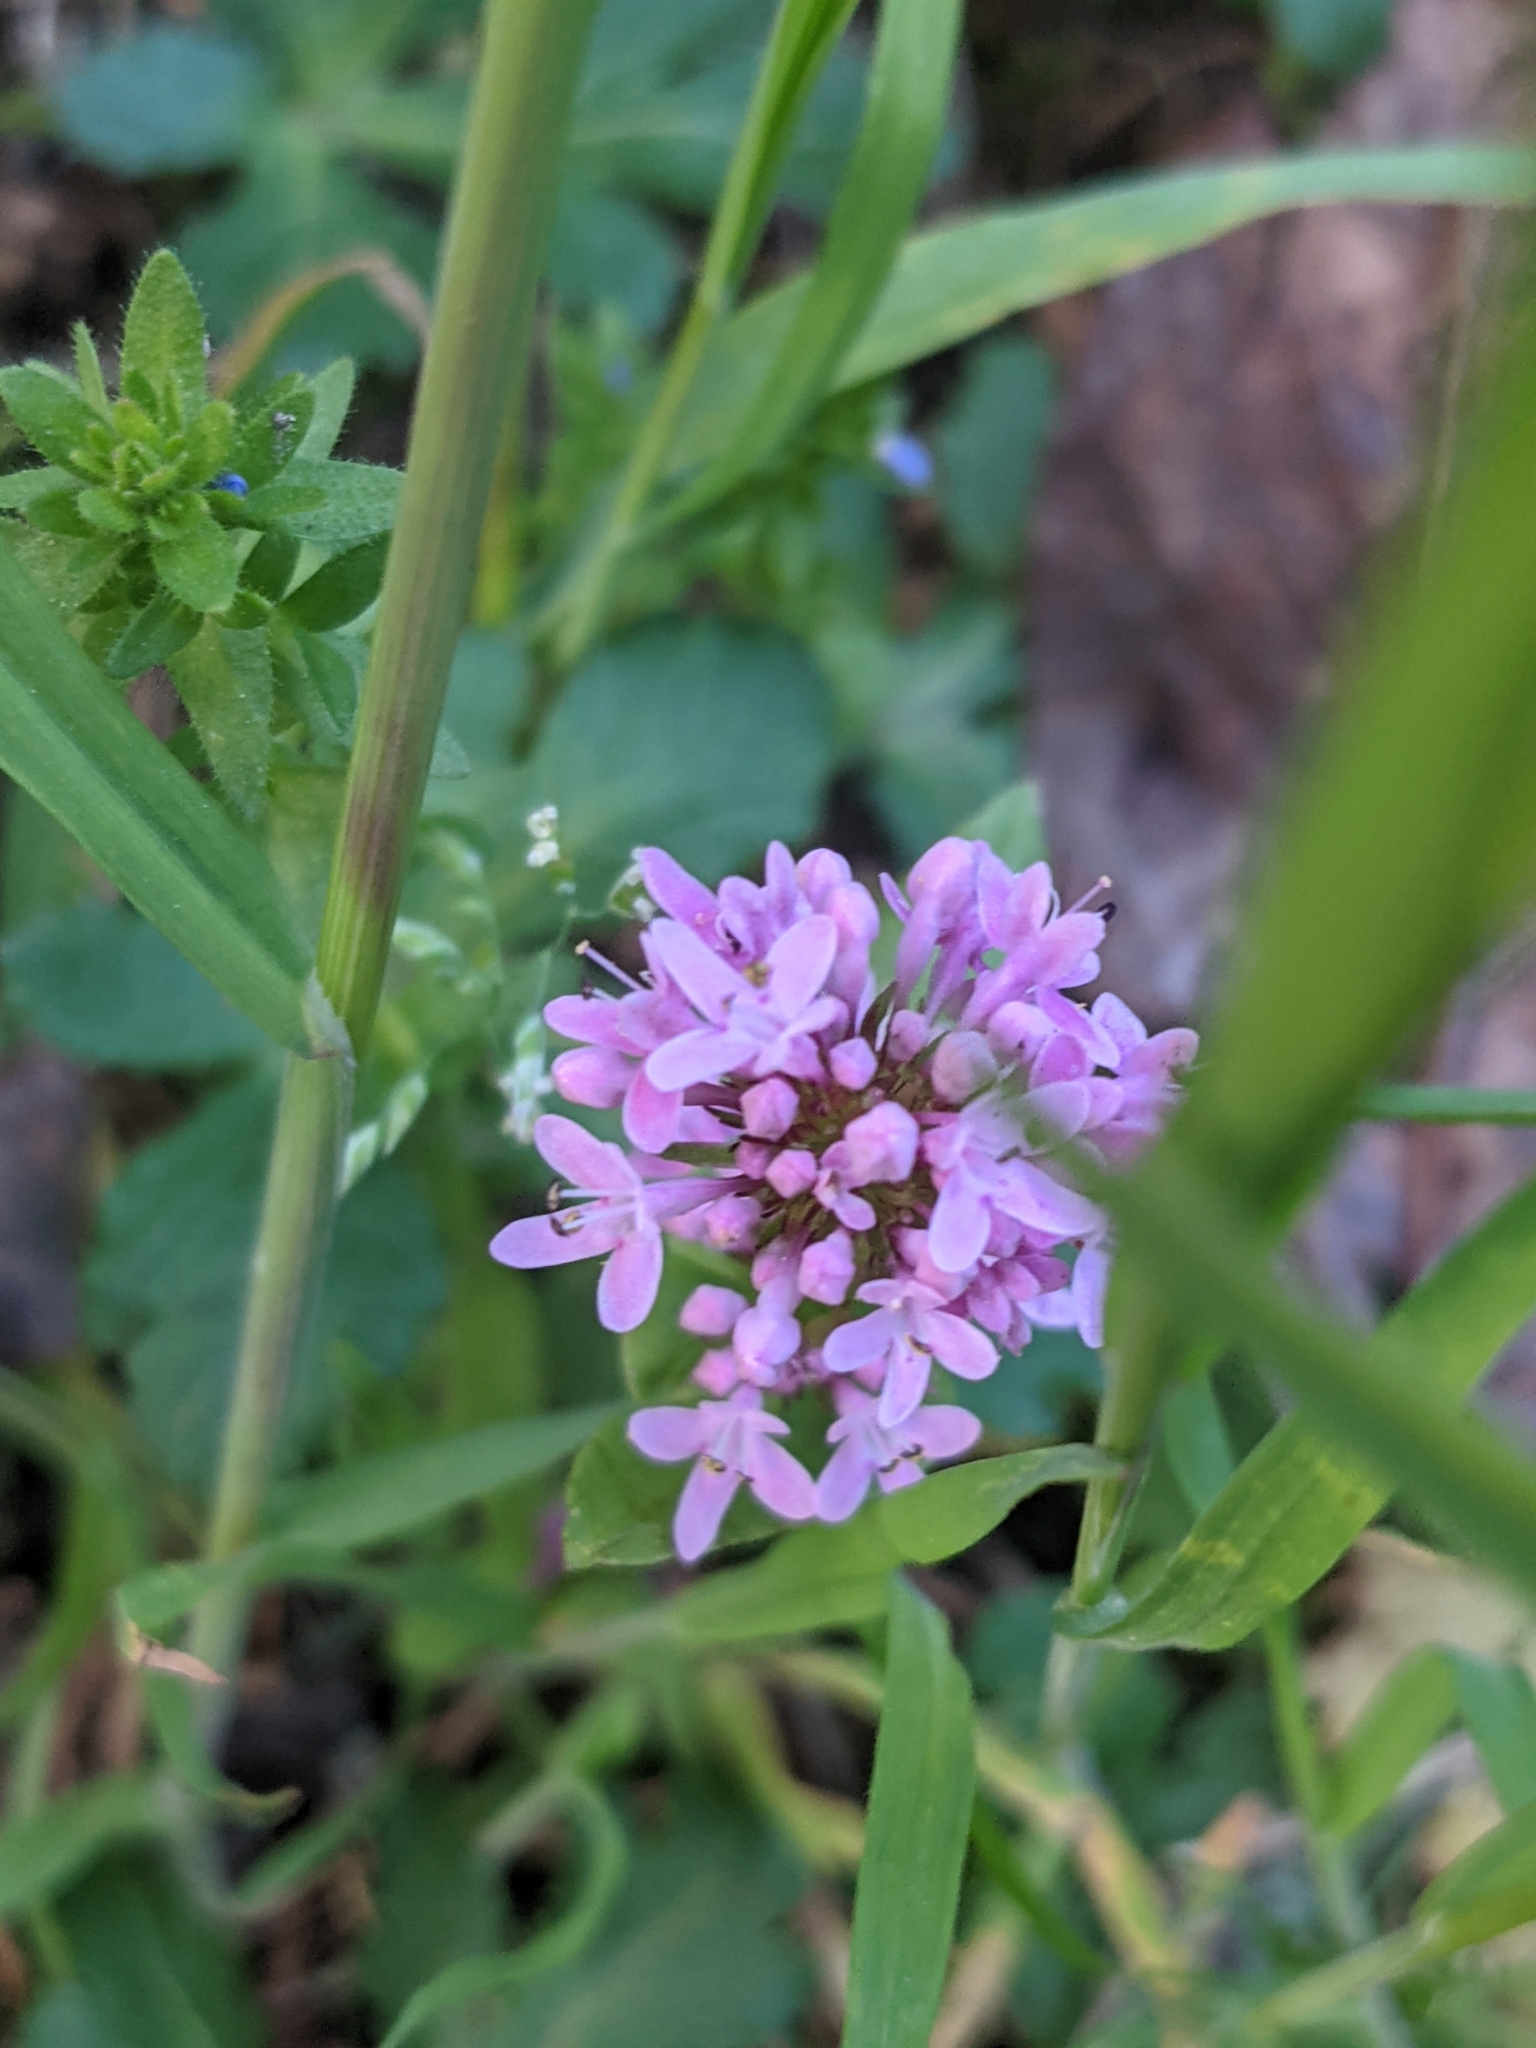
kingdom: Plantae
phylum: Tracheophyta
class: Magnoliopsida
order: Dipsacales
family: Caprifoliaceae
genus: Plectritis
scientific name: Plectritis congesta
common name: Pink plectritis
